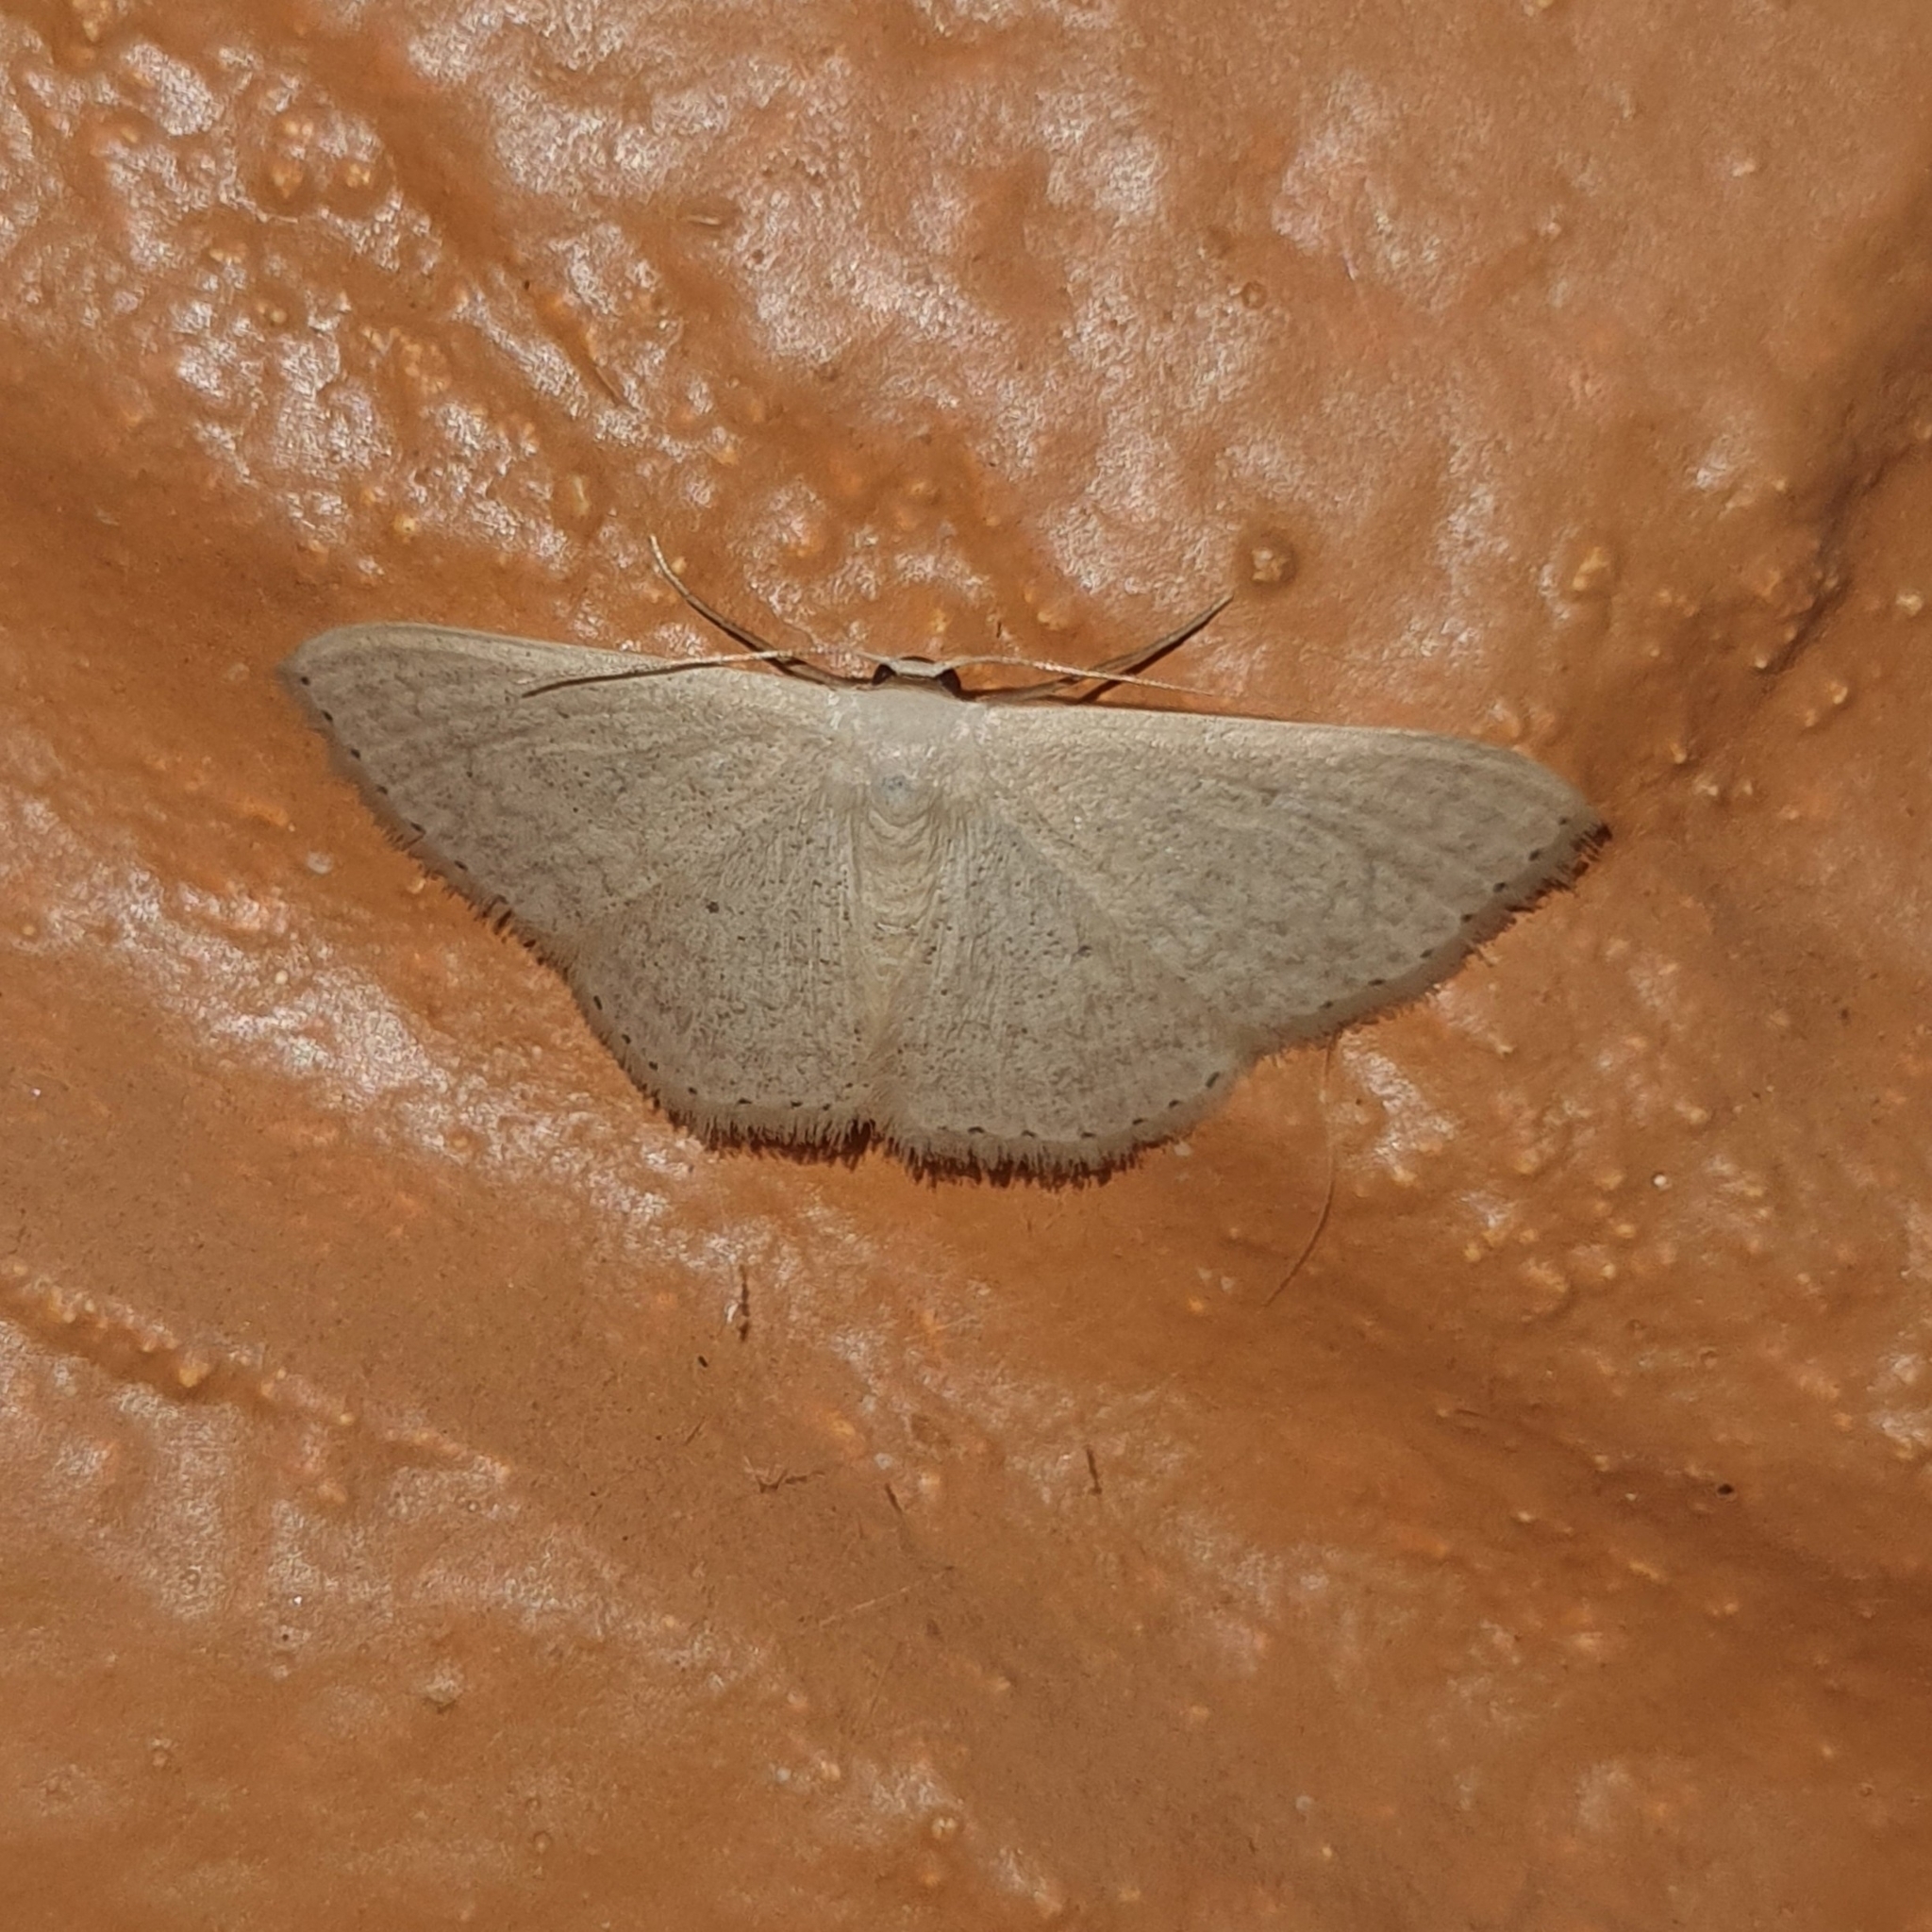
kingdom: Animalia
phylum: Arthropoda
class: Insecta
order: Lepidoptera
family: Geometridae
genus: Scopula
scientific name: Scopula optivata
